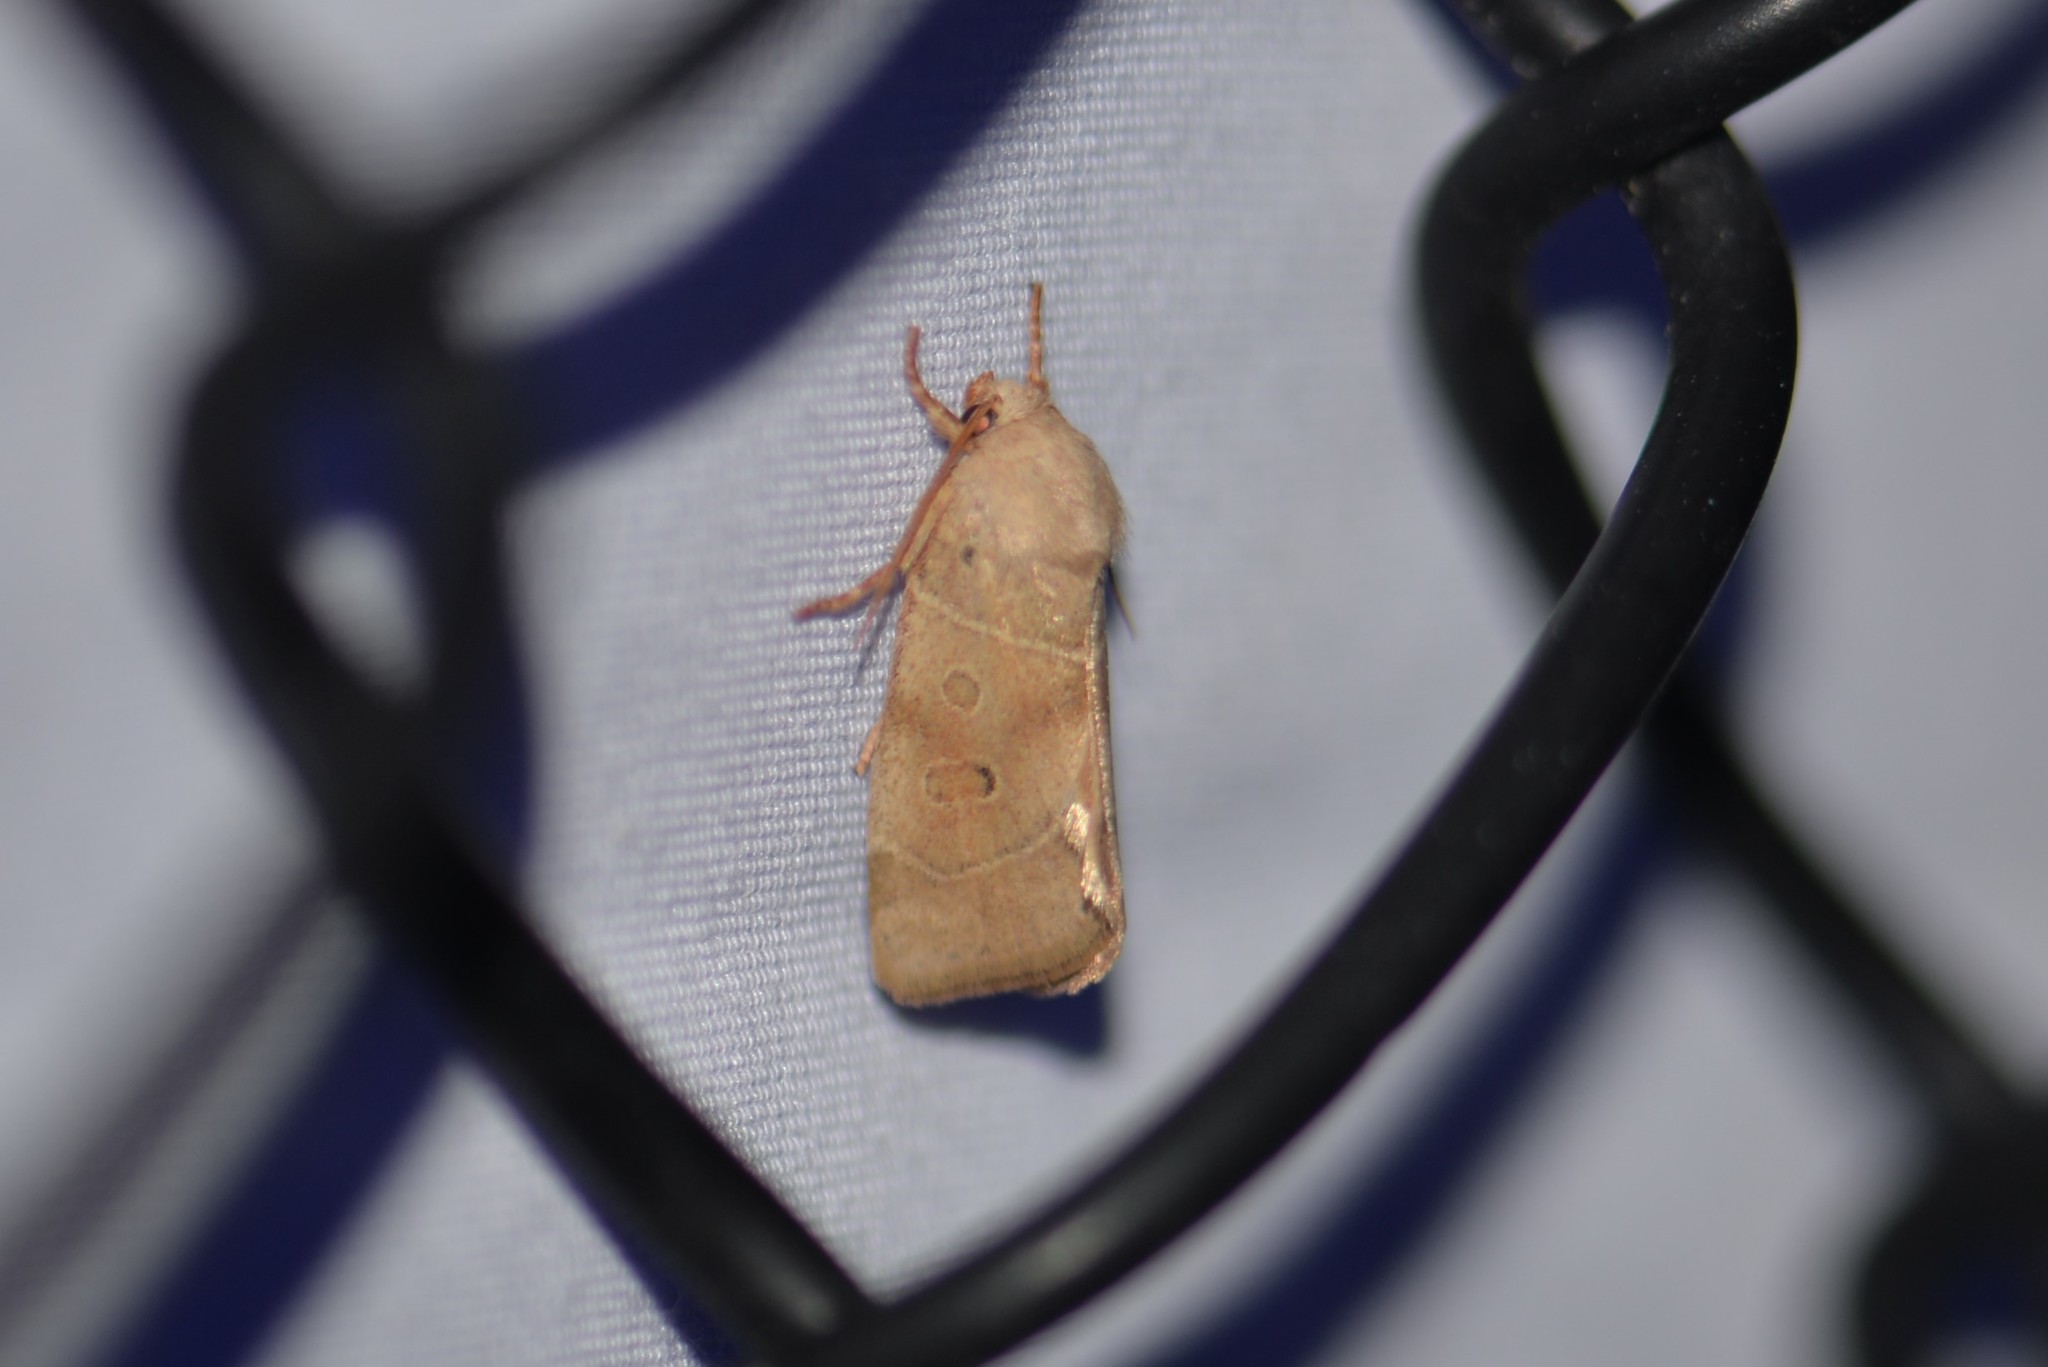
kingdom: Animalia
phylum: Arthropoda
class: Insecta
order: Lepidoptera
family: Noctuidae
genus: Cosmia
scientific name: Cosmia calami
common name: American dun-bar moth
